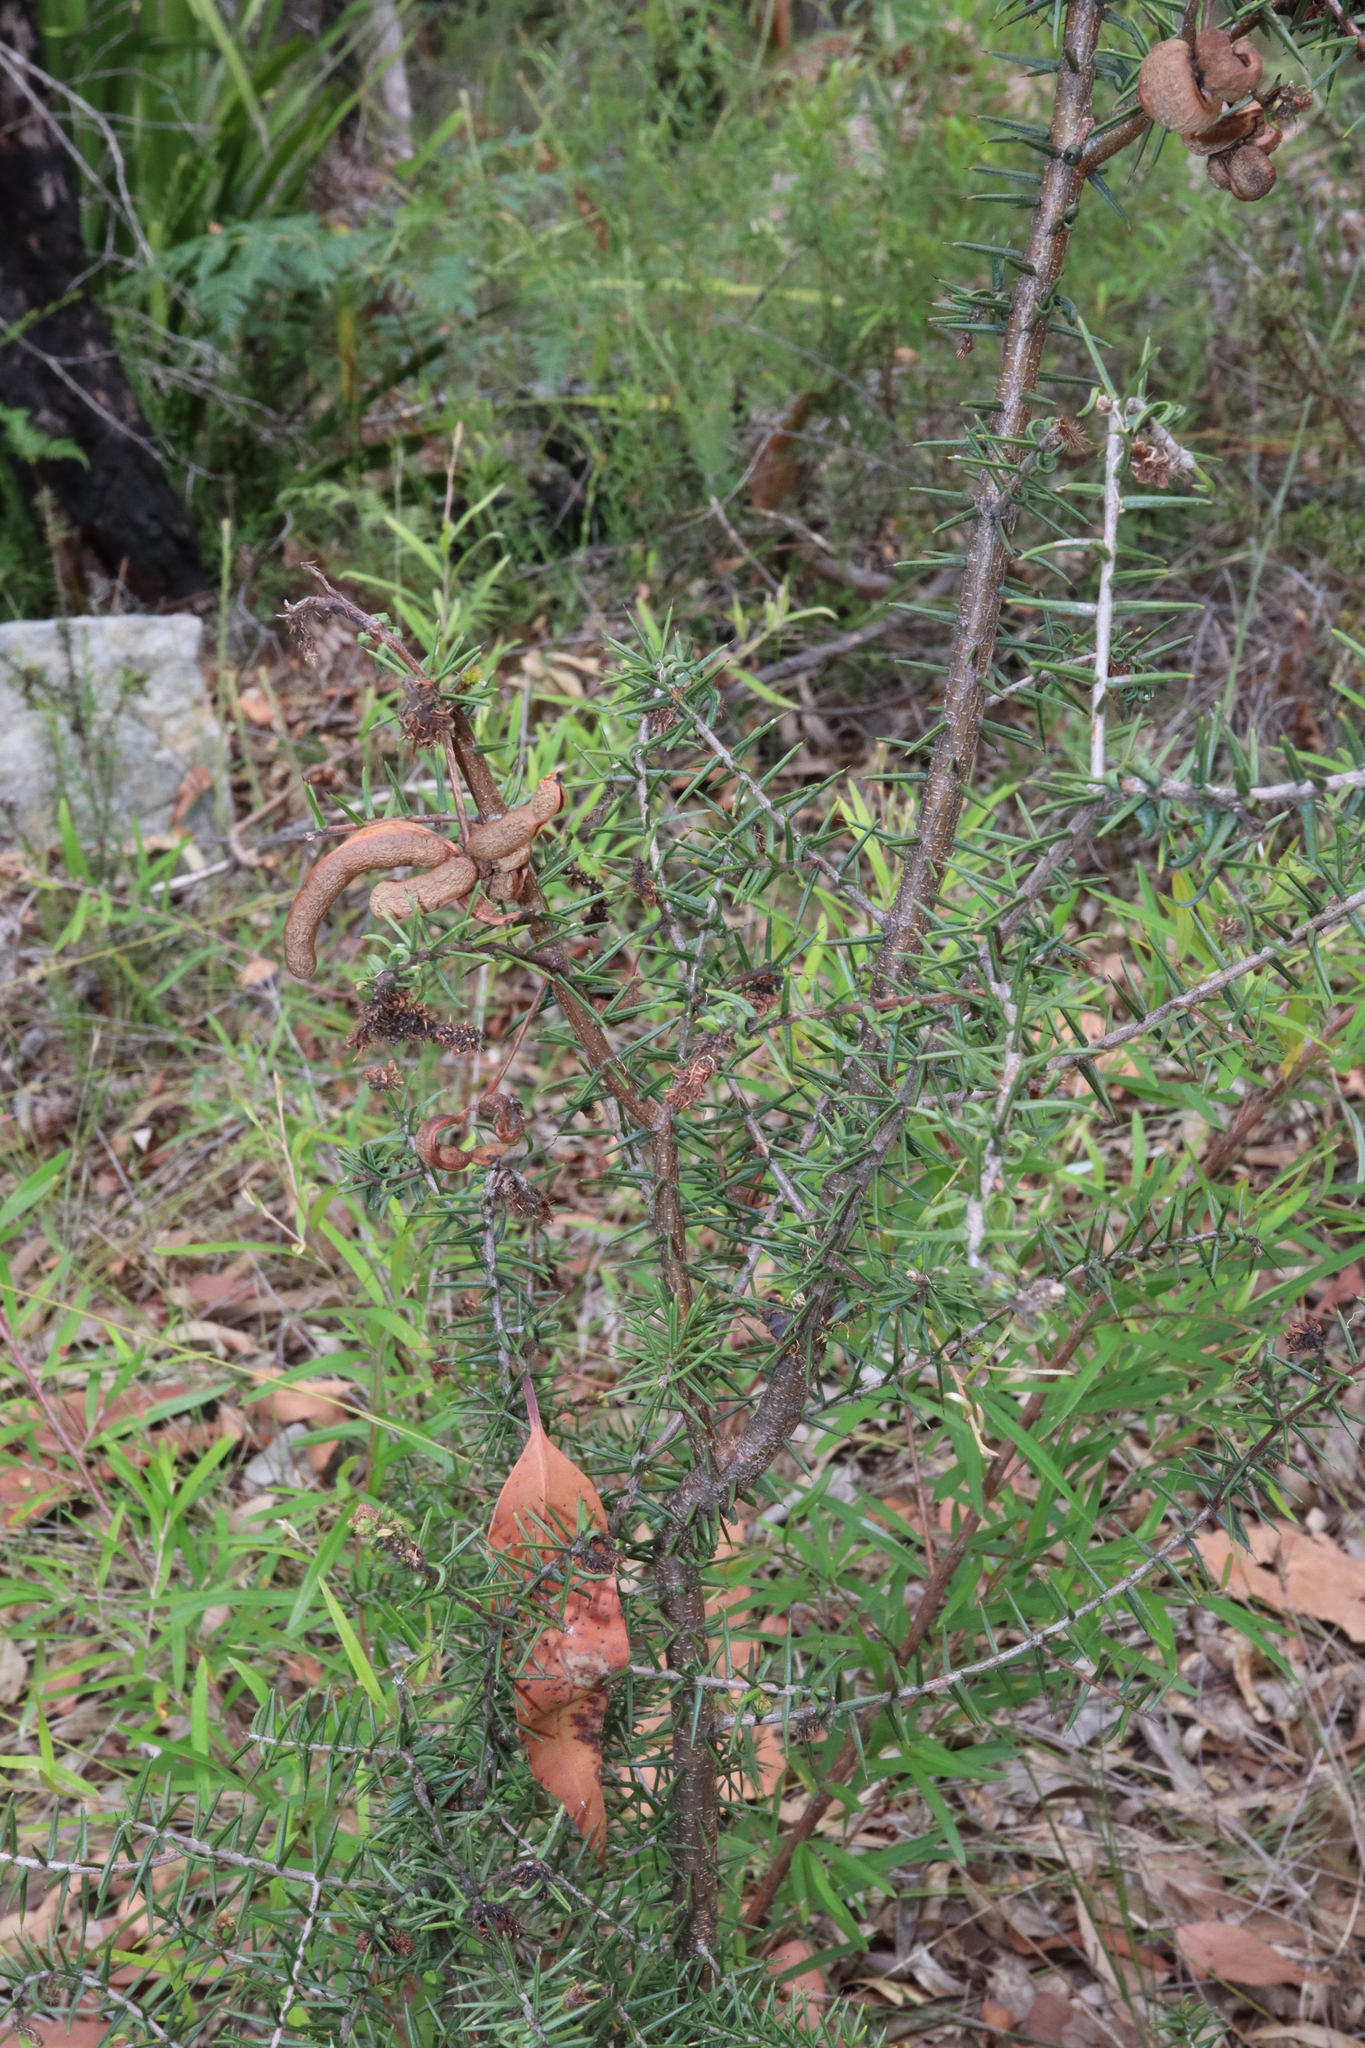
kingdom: Plantae
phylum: Tracheophyta
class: Magnoliopsida
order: Fabales
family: Fabaceae
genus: Acacia
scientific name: Acacia ulicifolia
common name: Juniper wattle
